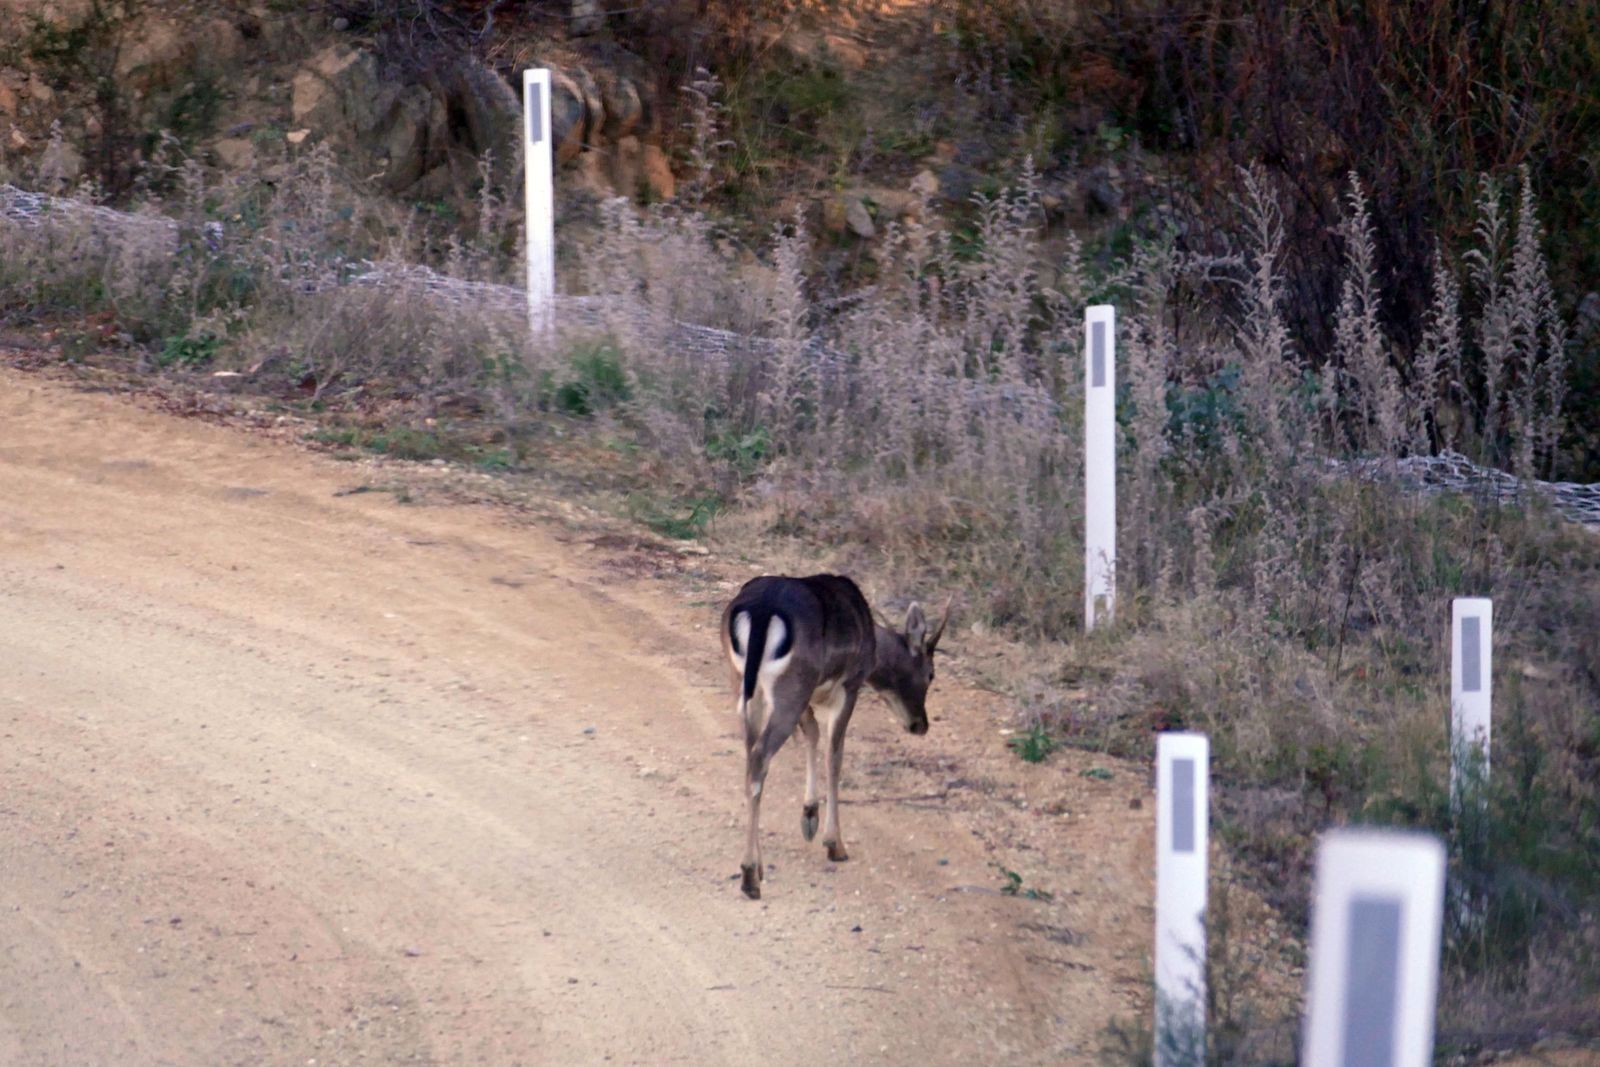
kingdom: Animalia
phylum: Chordata
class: Mammalia
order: Artiodactyla
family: Cervidae
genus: Dama
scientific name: Dama dama
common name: Fallow deer
